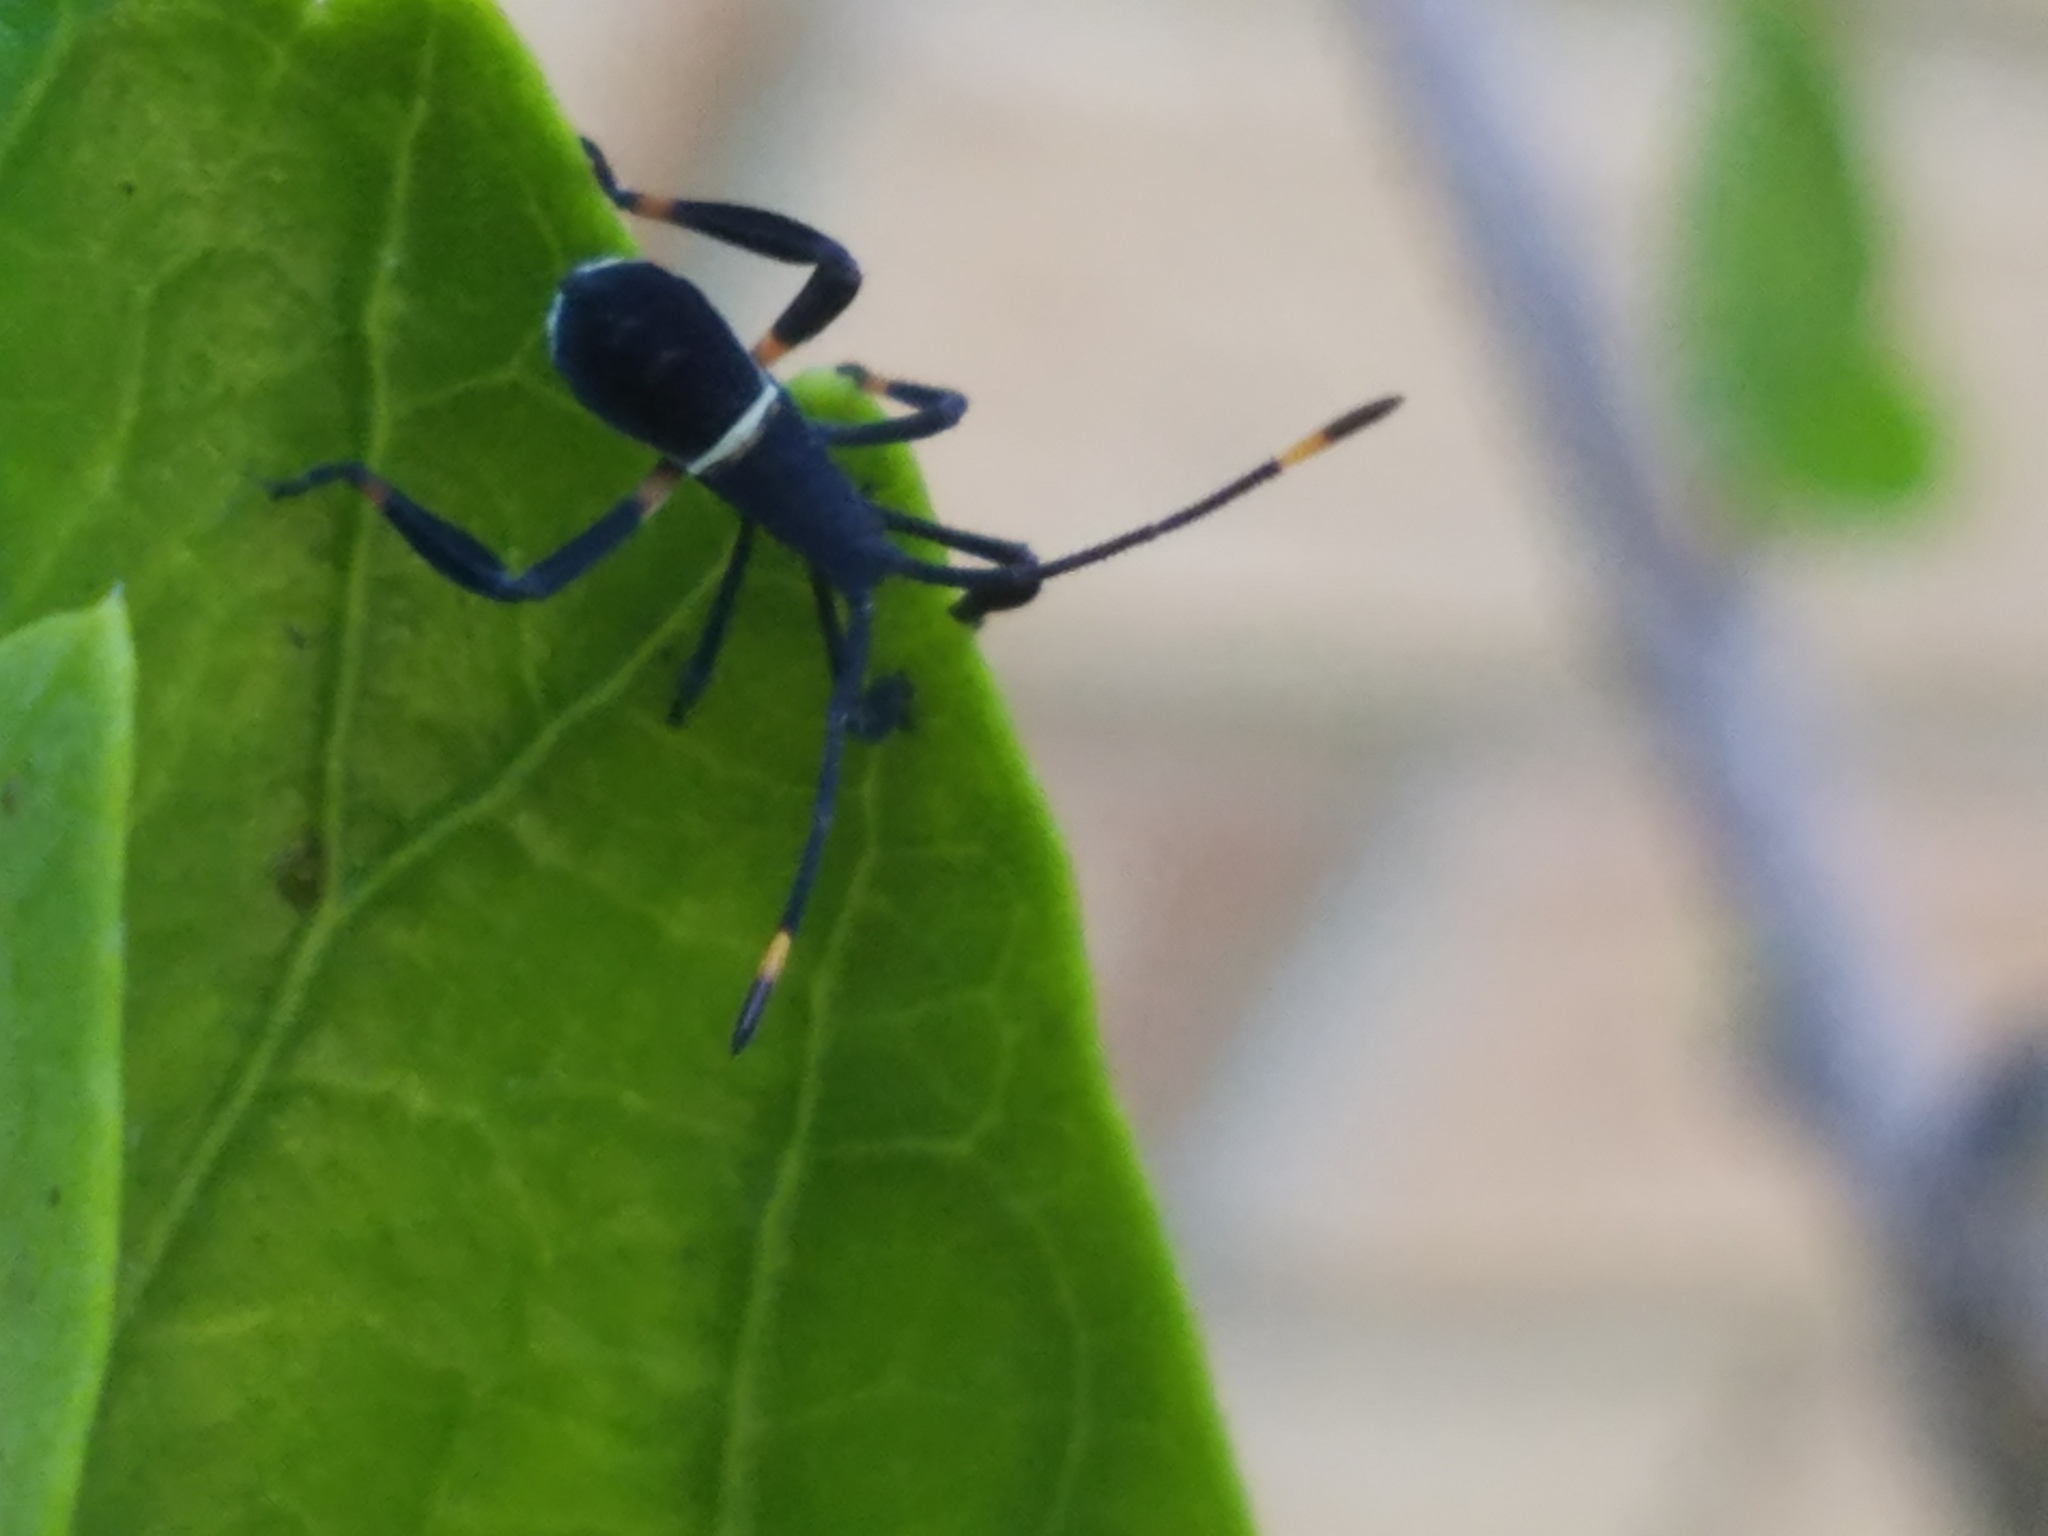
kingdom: Animalia
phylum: Arthropoda
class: Insecta
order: Hemiptera
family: Coreidae
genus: Mictis
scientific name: Mictis profana
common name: Crusader bug
